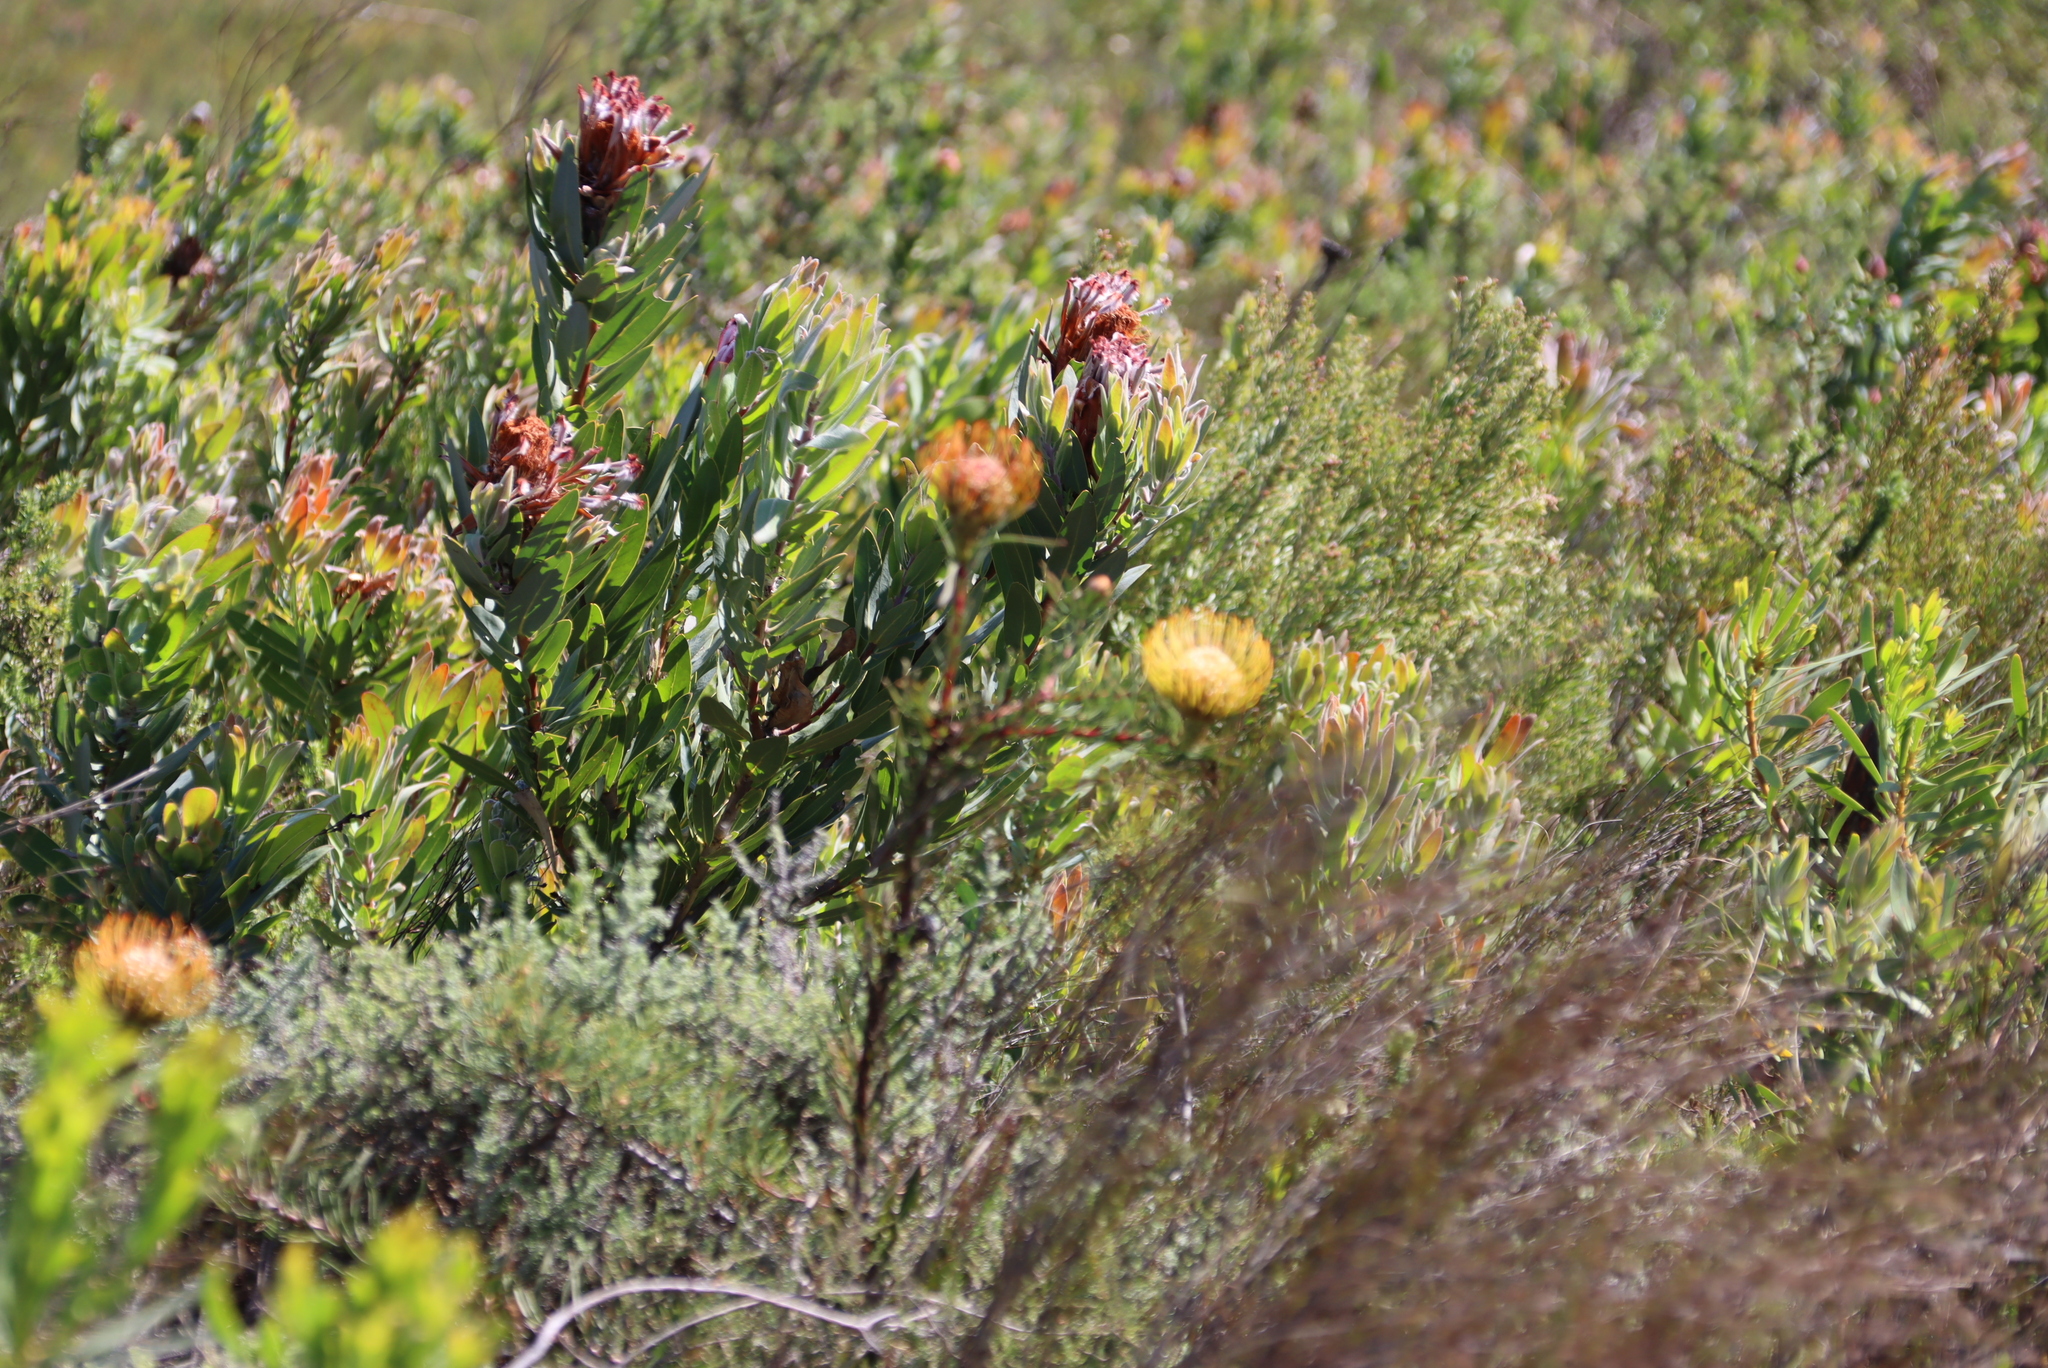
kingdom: Plantae
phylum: Tracheophyta
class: Magnoliopsida
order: Proteales
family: Proteaceae
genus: Leucospermum
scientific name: Leucospermum lineare
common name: Needle-leaf pincushion
